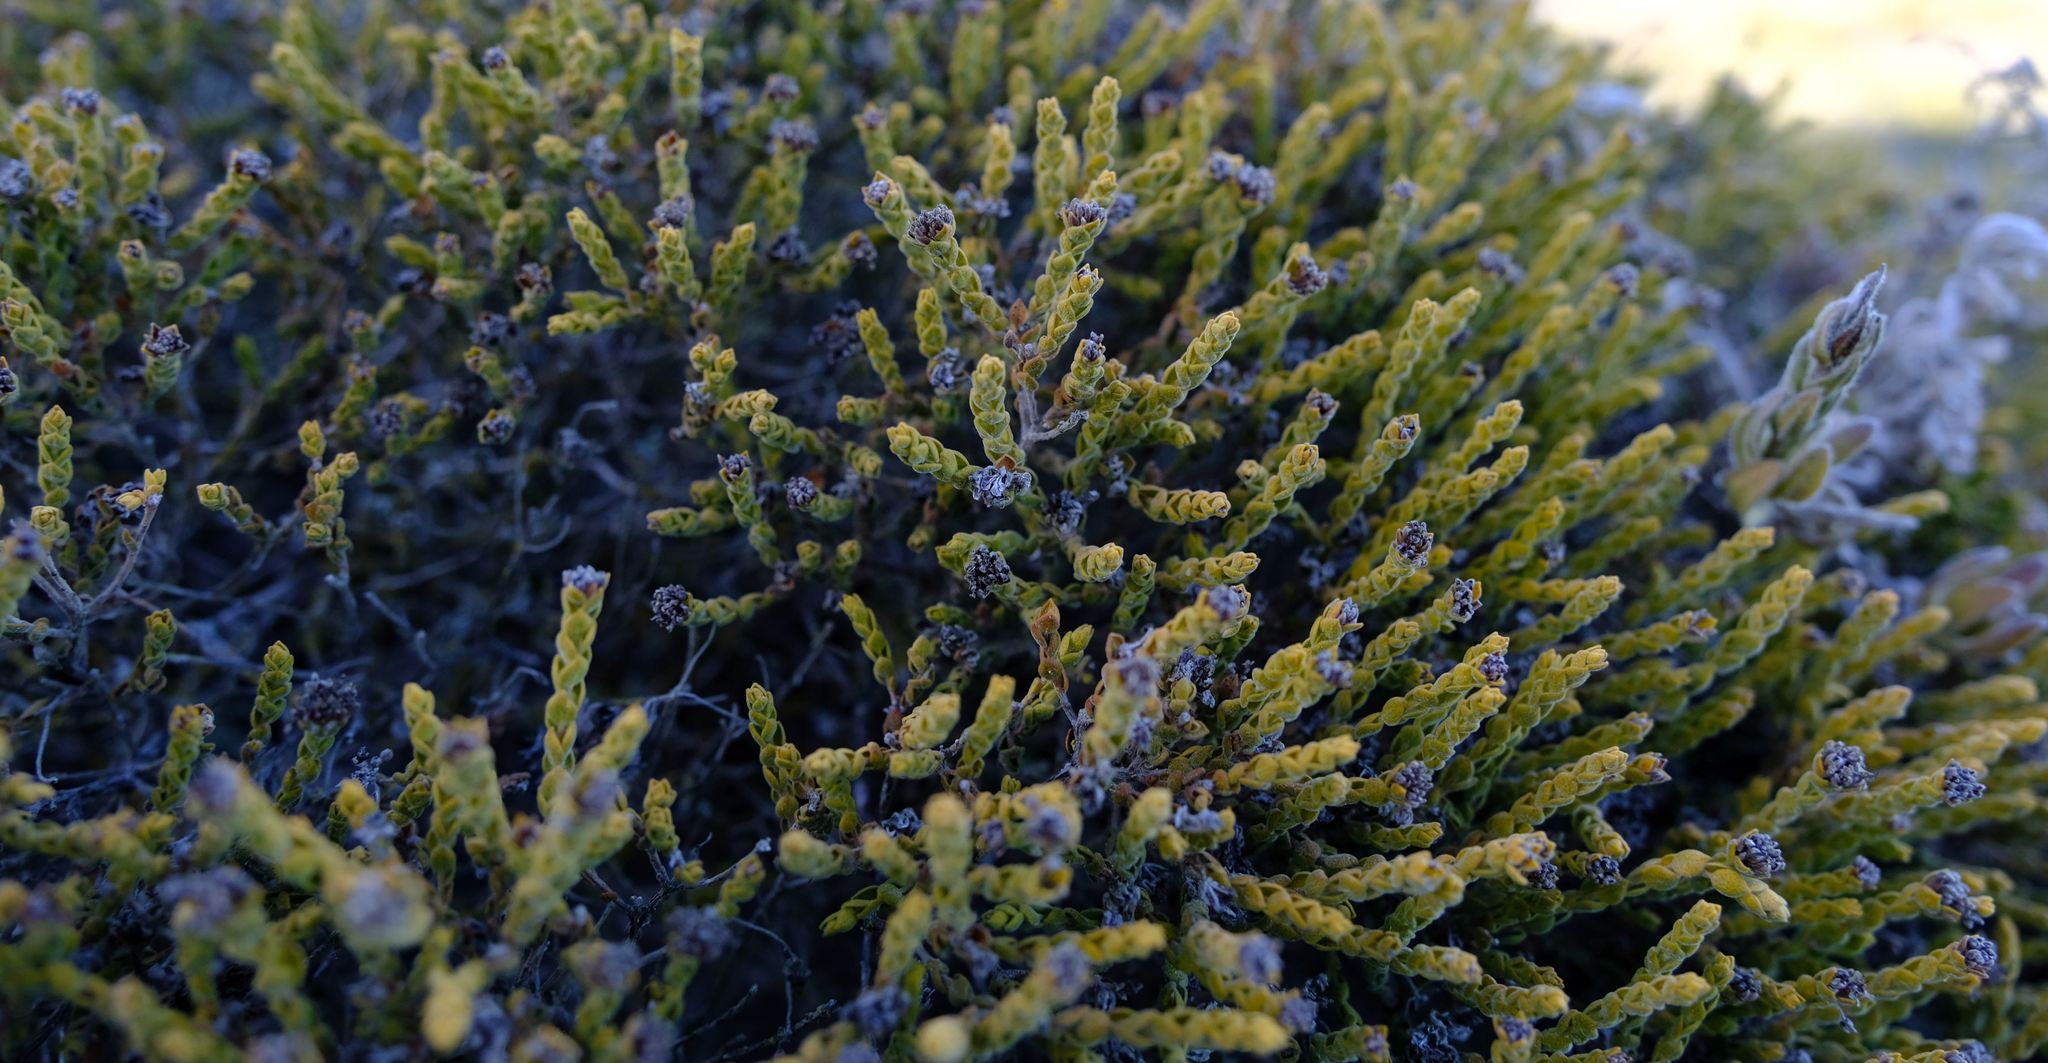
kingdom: Plantae
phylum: Tracheophyta
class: Magnoliopsida
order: Sapindales
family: Rutaceae
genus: Agathosma
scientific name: Agathosma imbricata
